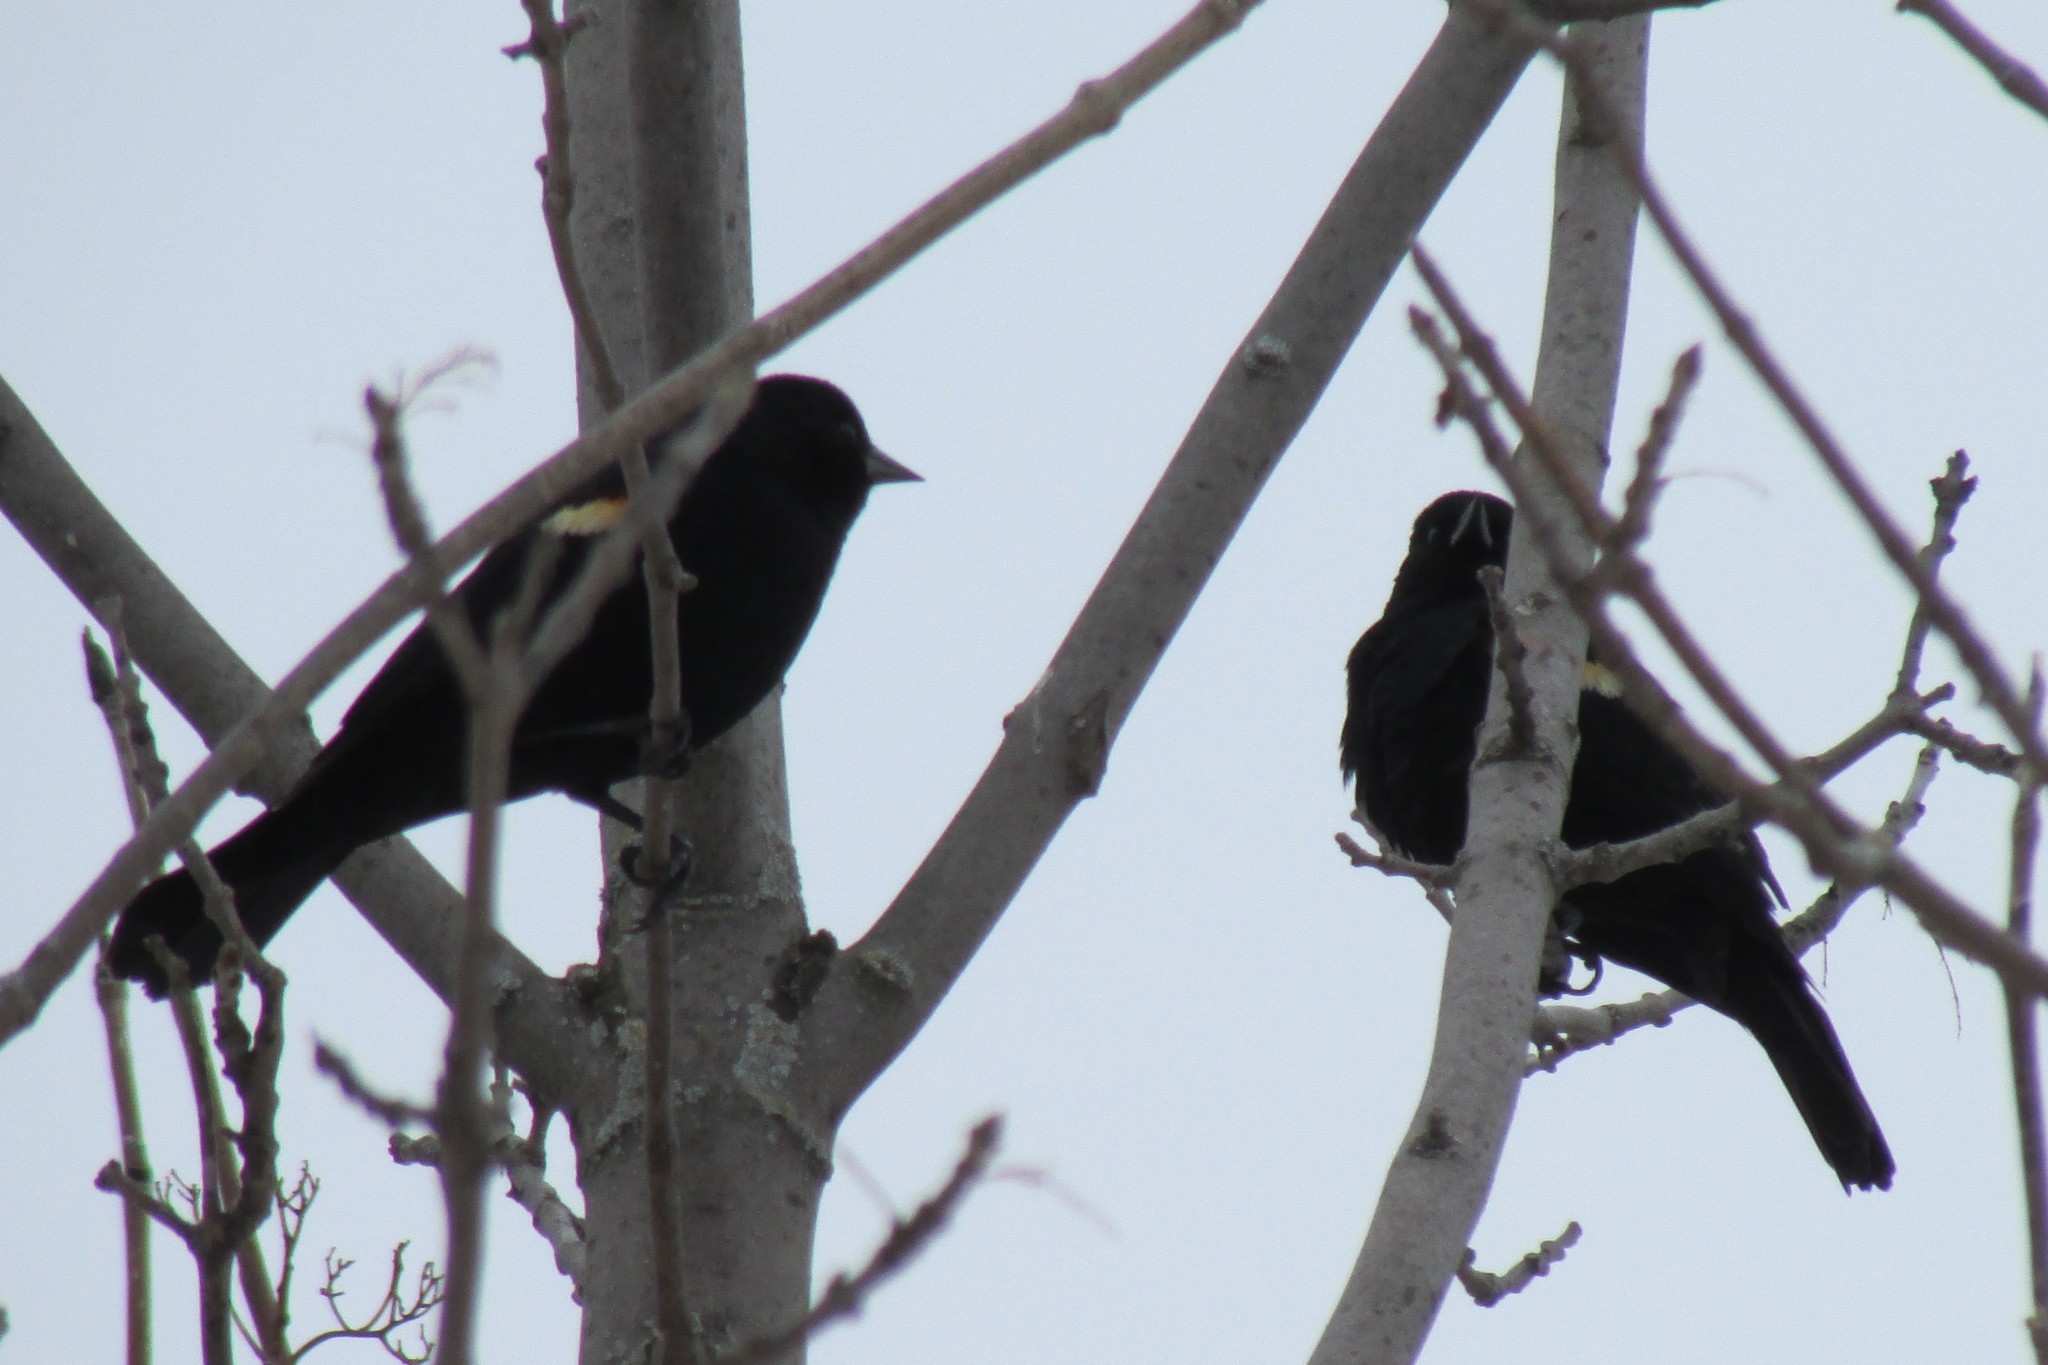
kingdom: Animalia
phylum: Chordata
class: Aves
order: Passeriformes
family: Icteridae
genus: Agelaius
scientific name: Agelaius phoeniceus
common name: Red-winged blackbird
